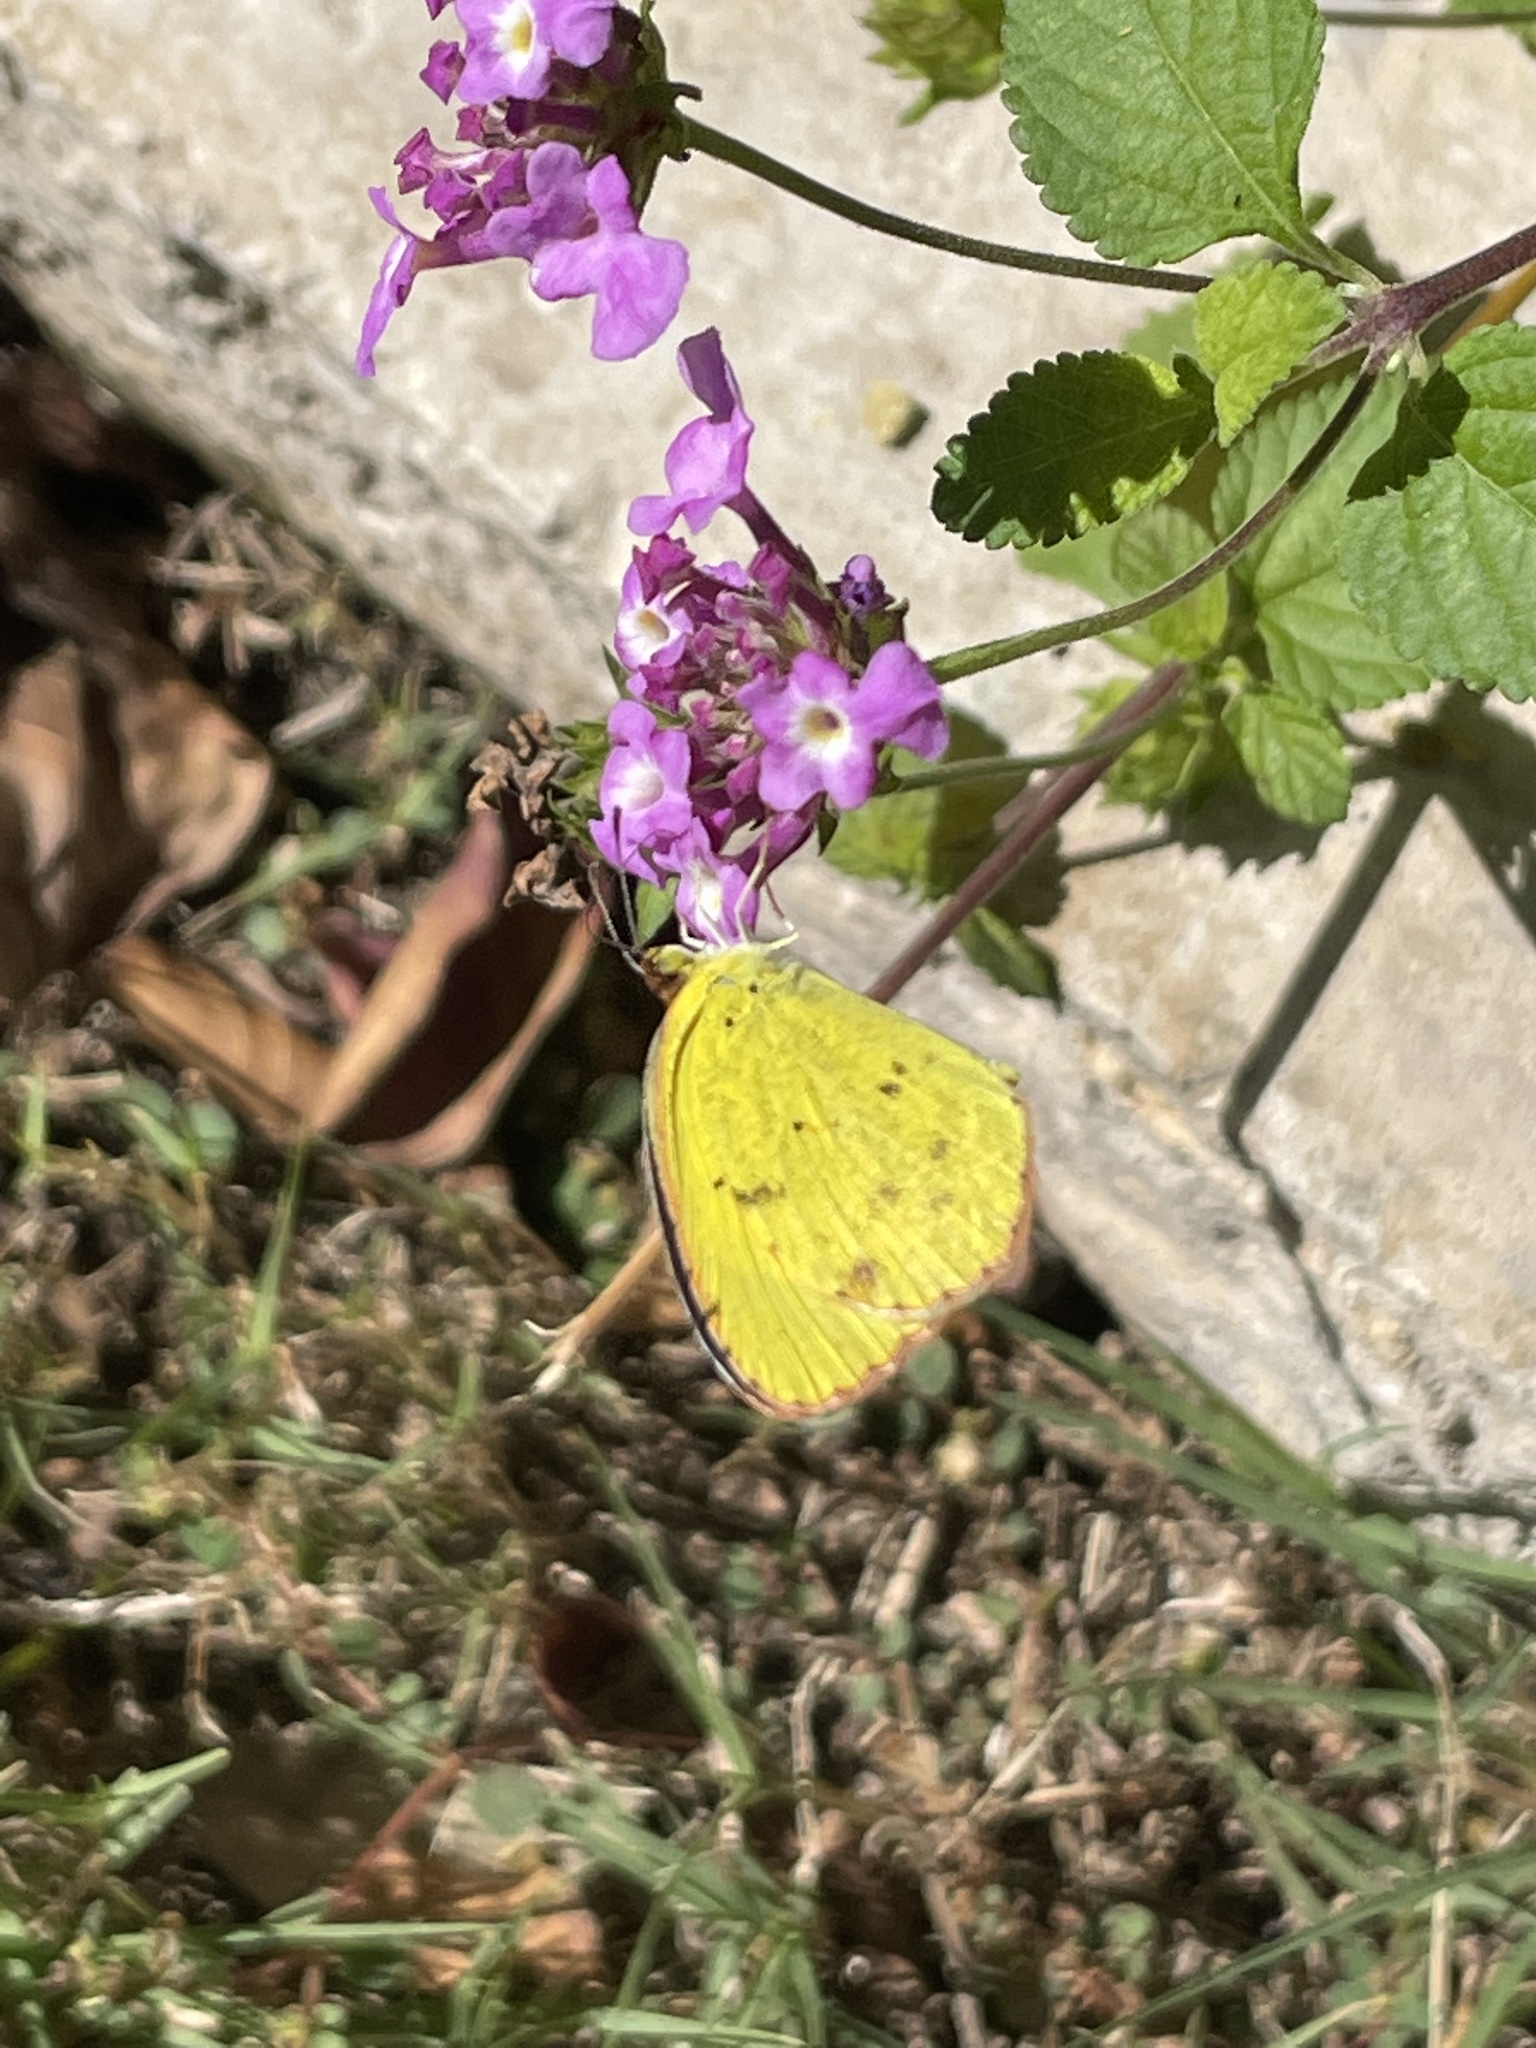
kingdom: Animalia
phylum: Arthropoda
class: Insecta
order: Lepidoptera
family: Pieridae
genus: Pyrisitia
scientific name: Pyrisitia lisa
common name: Little yellow
